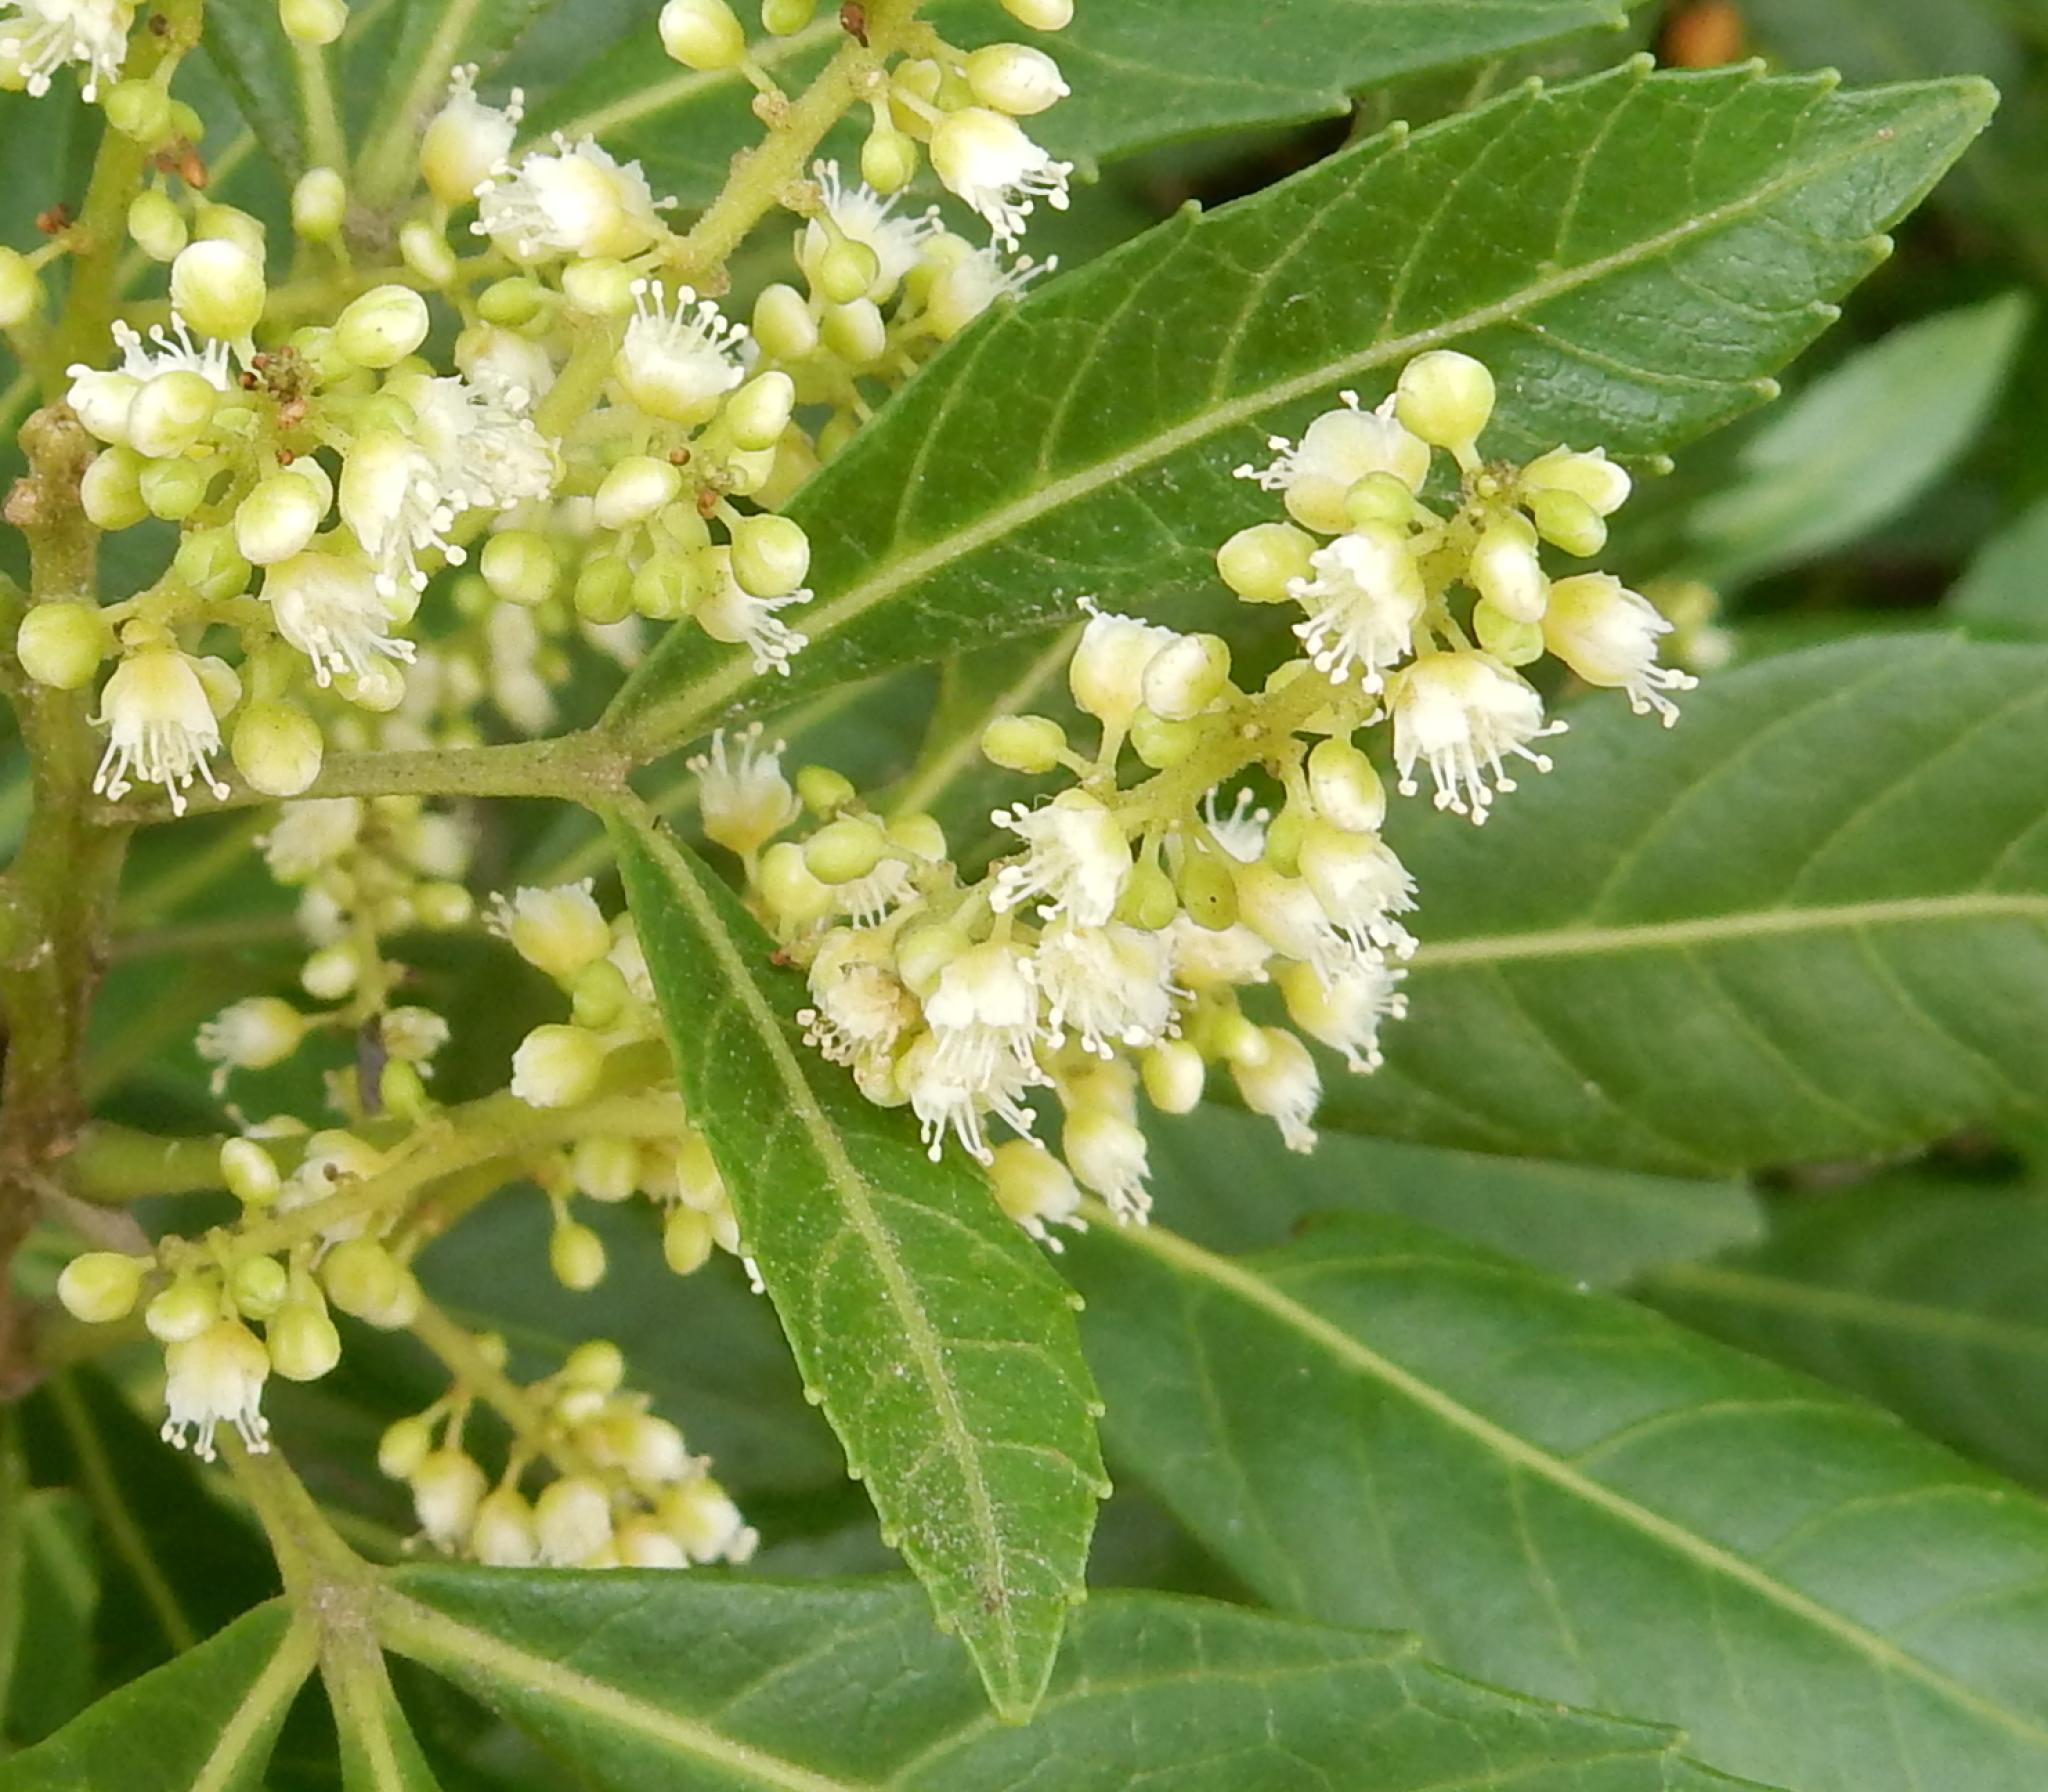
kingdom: Plantae
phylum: Tracheophyta
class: Magnoliopsida
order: Sapindales
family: Sapindaceae
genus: Allophylus
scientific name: Allophylus natalensis
